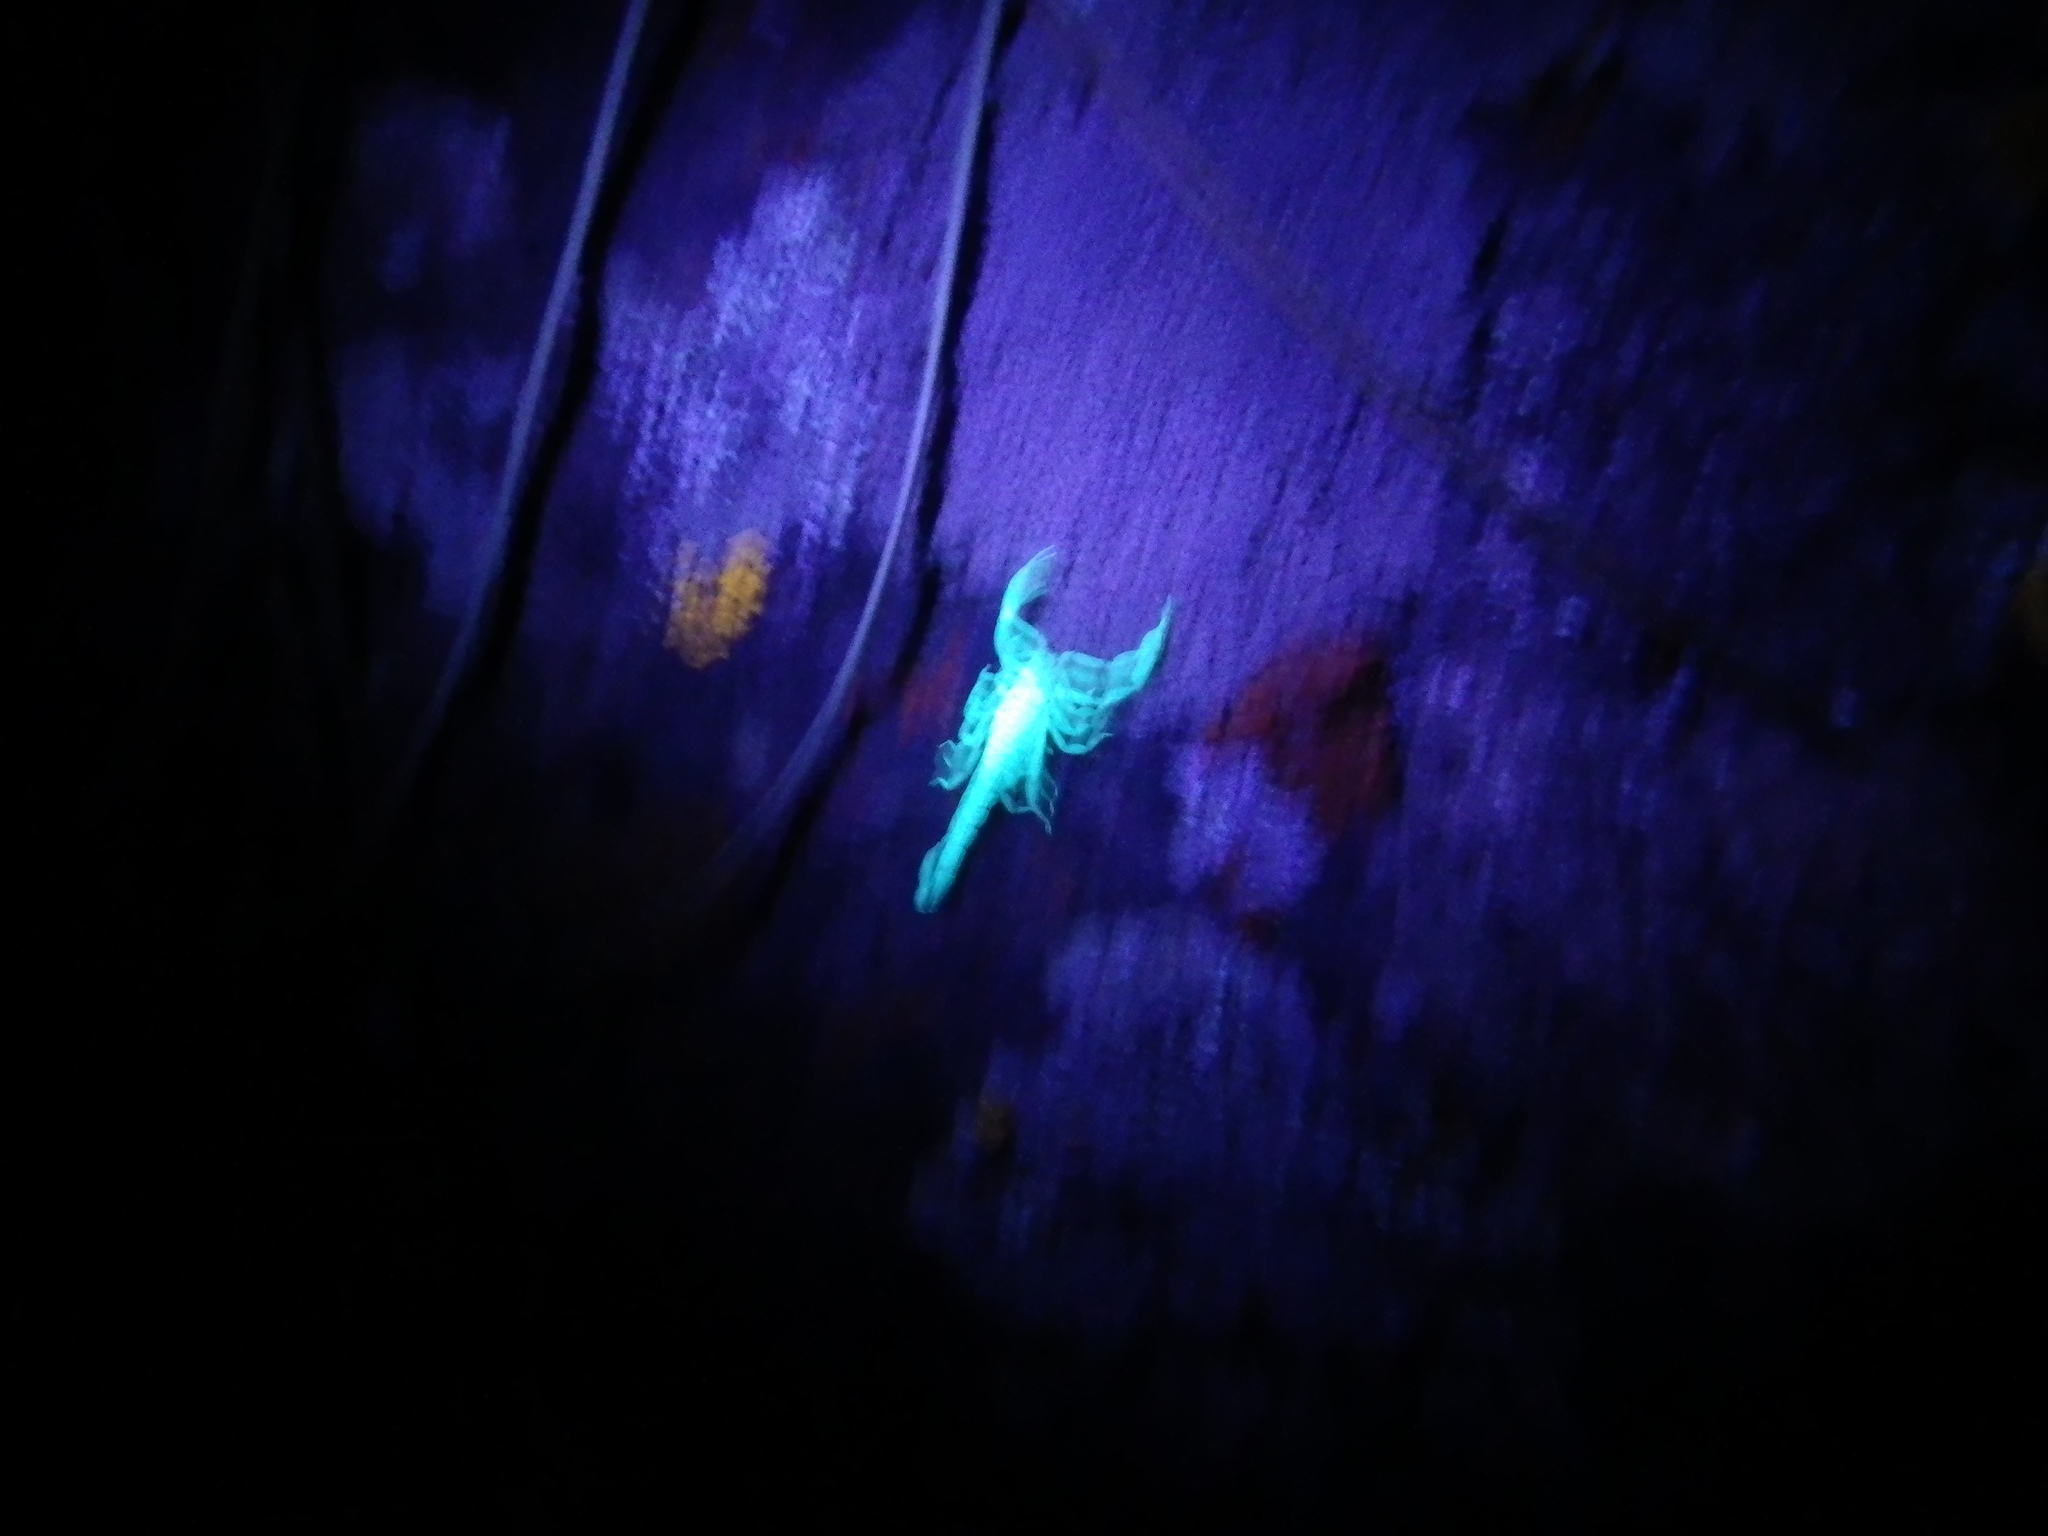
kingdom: Animalia
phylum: Arthropoda
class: Arachnida
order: Scorpiones
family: Vaejovidae
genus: Serradigitus
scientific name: Serradigitus gertschi
